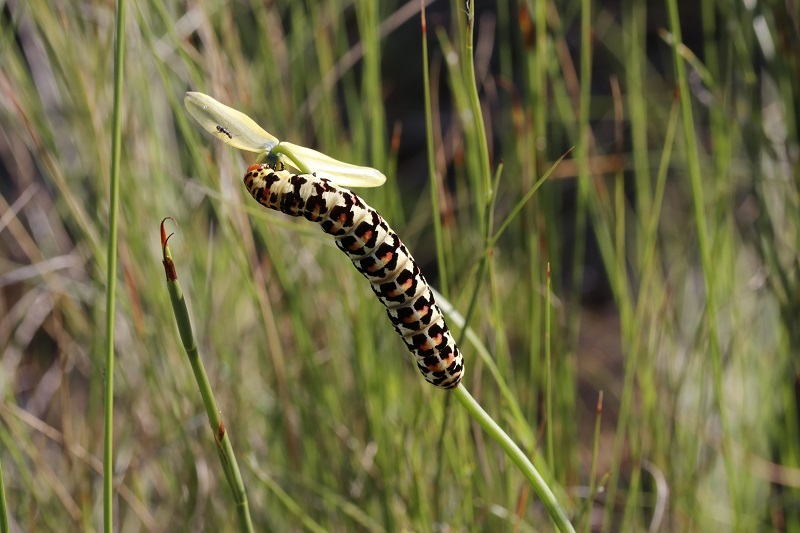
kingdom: Animalia
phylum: Arthropoda
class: Insecta
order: Lepidoptera
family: Noctuidae
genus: Diaphone
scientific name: Diaphone eumela
